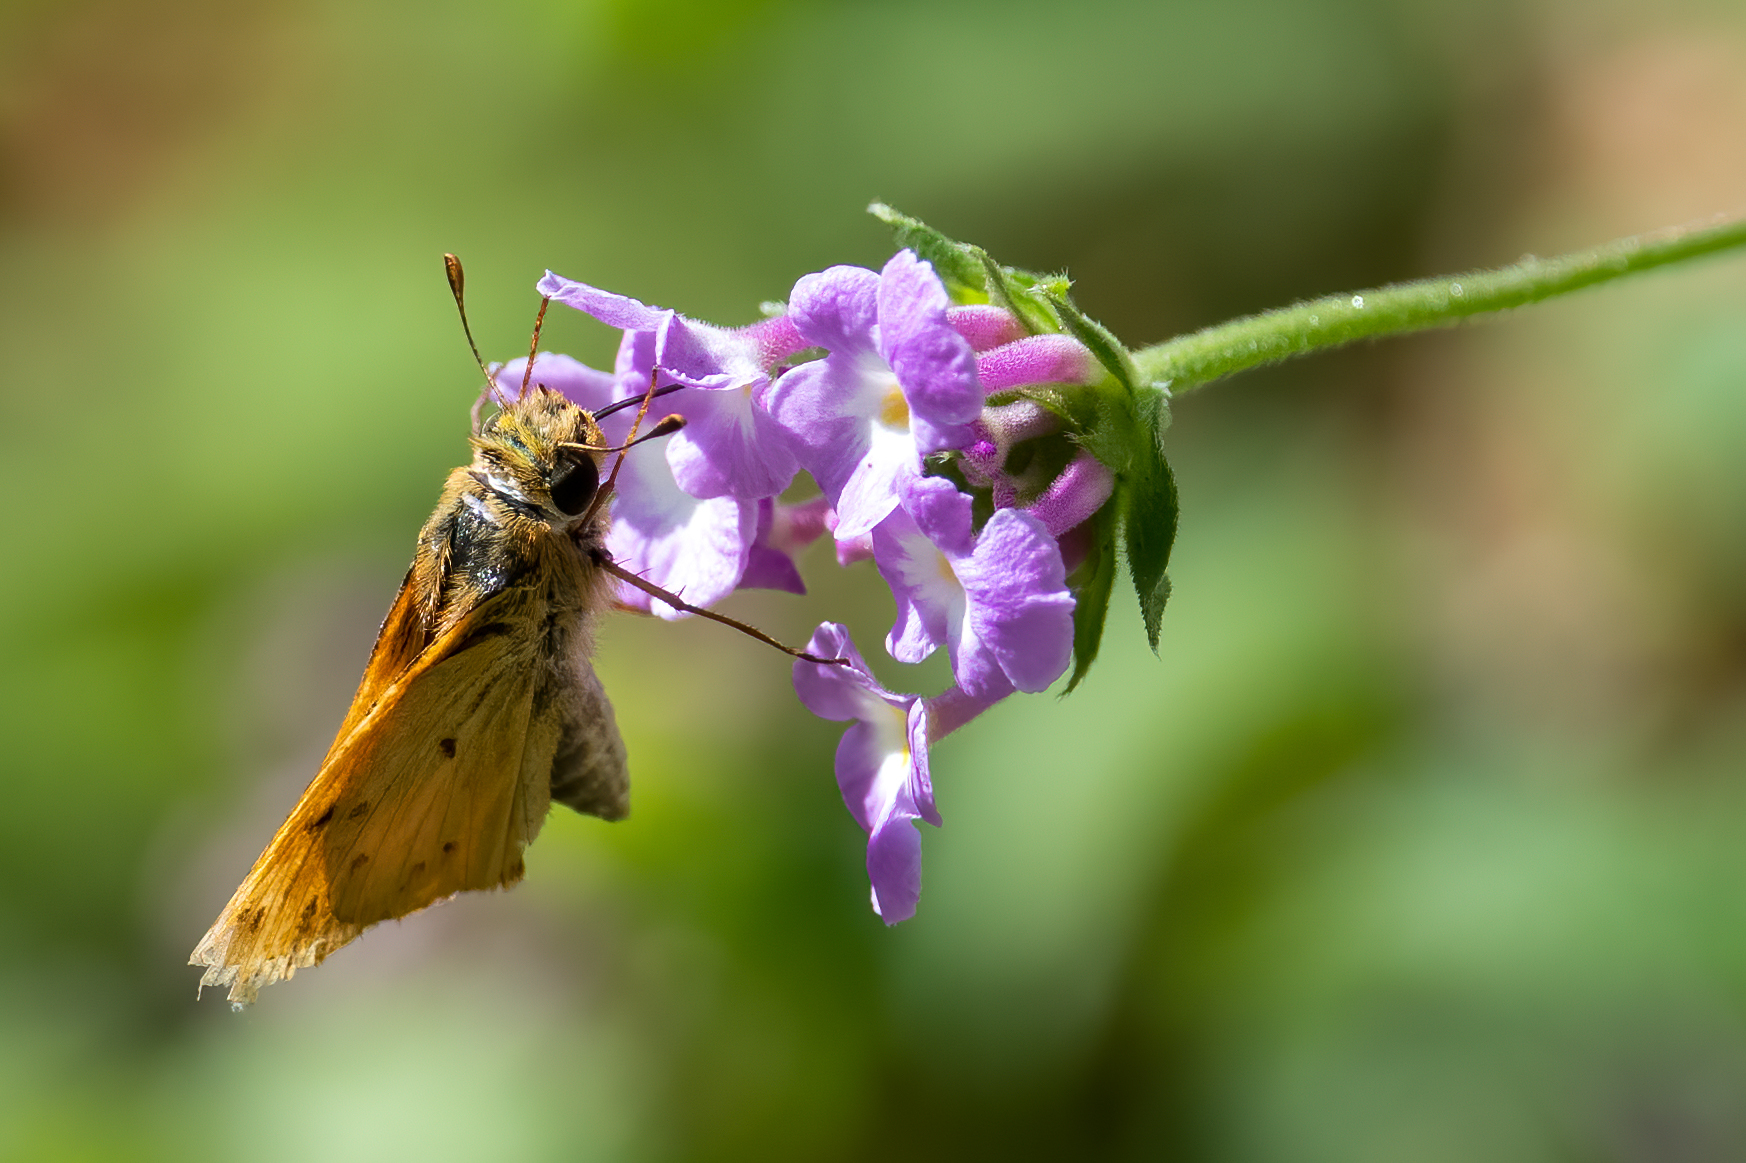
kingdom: Animalia
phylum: Arthropoda
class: Insecta
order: Lepidoptera
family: Hesperiidae
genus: Hylephila
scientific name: Hylephila phyleus
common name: Fiery skipper
